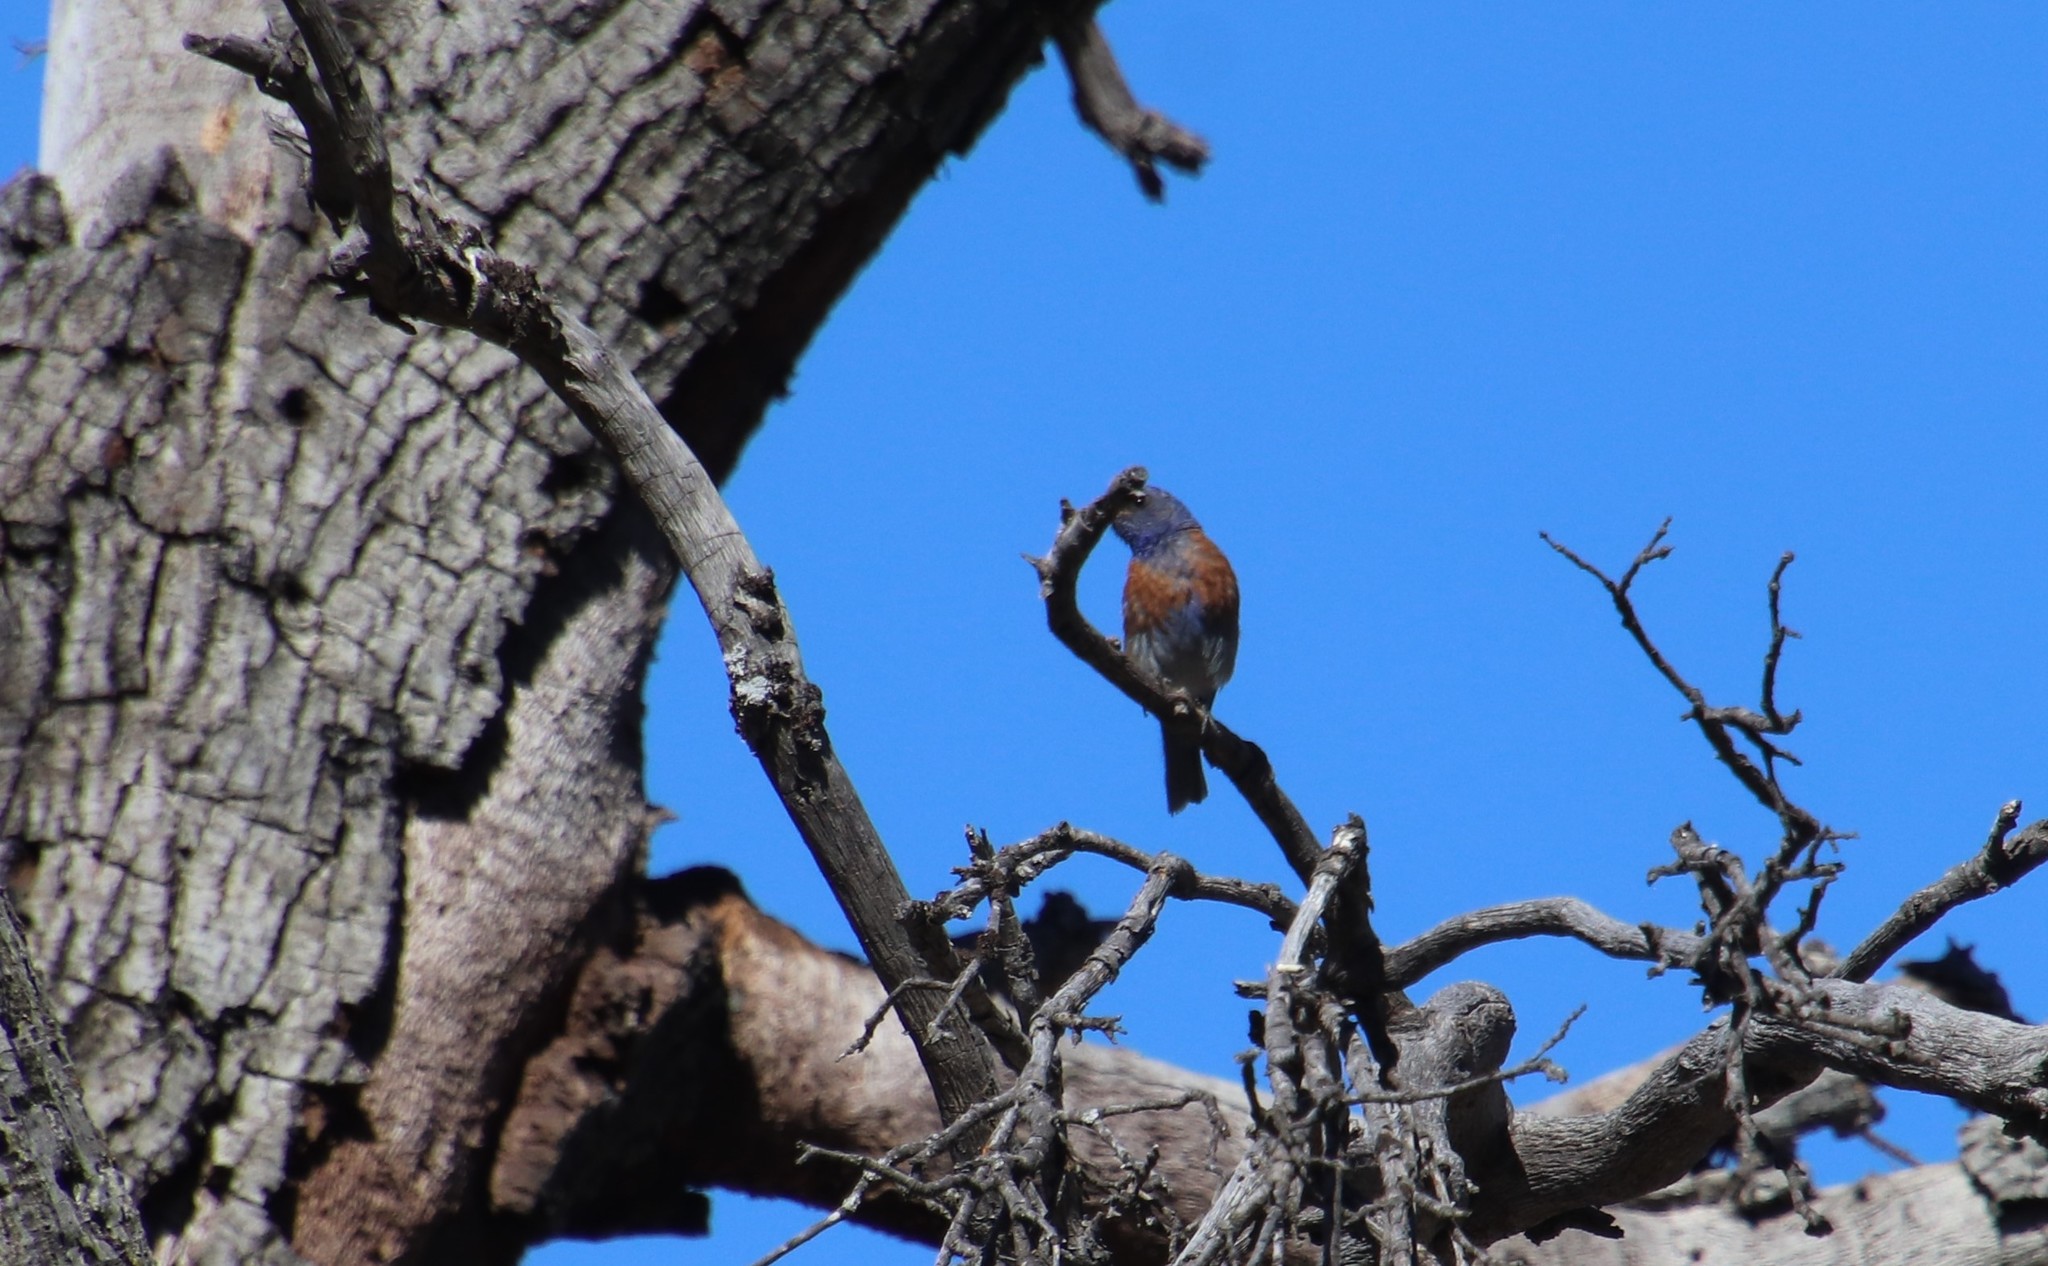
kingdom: Animalia
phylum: Chordata
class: Aves
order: Passeriformes
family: Turdidae
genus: Sialia
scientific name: Sialia mexicana
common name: Western bluebird
